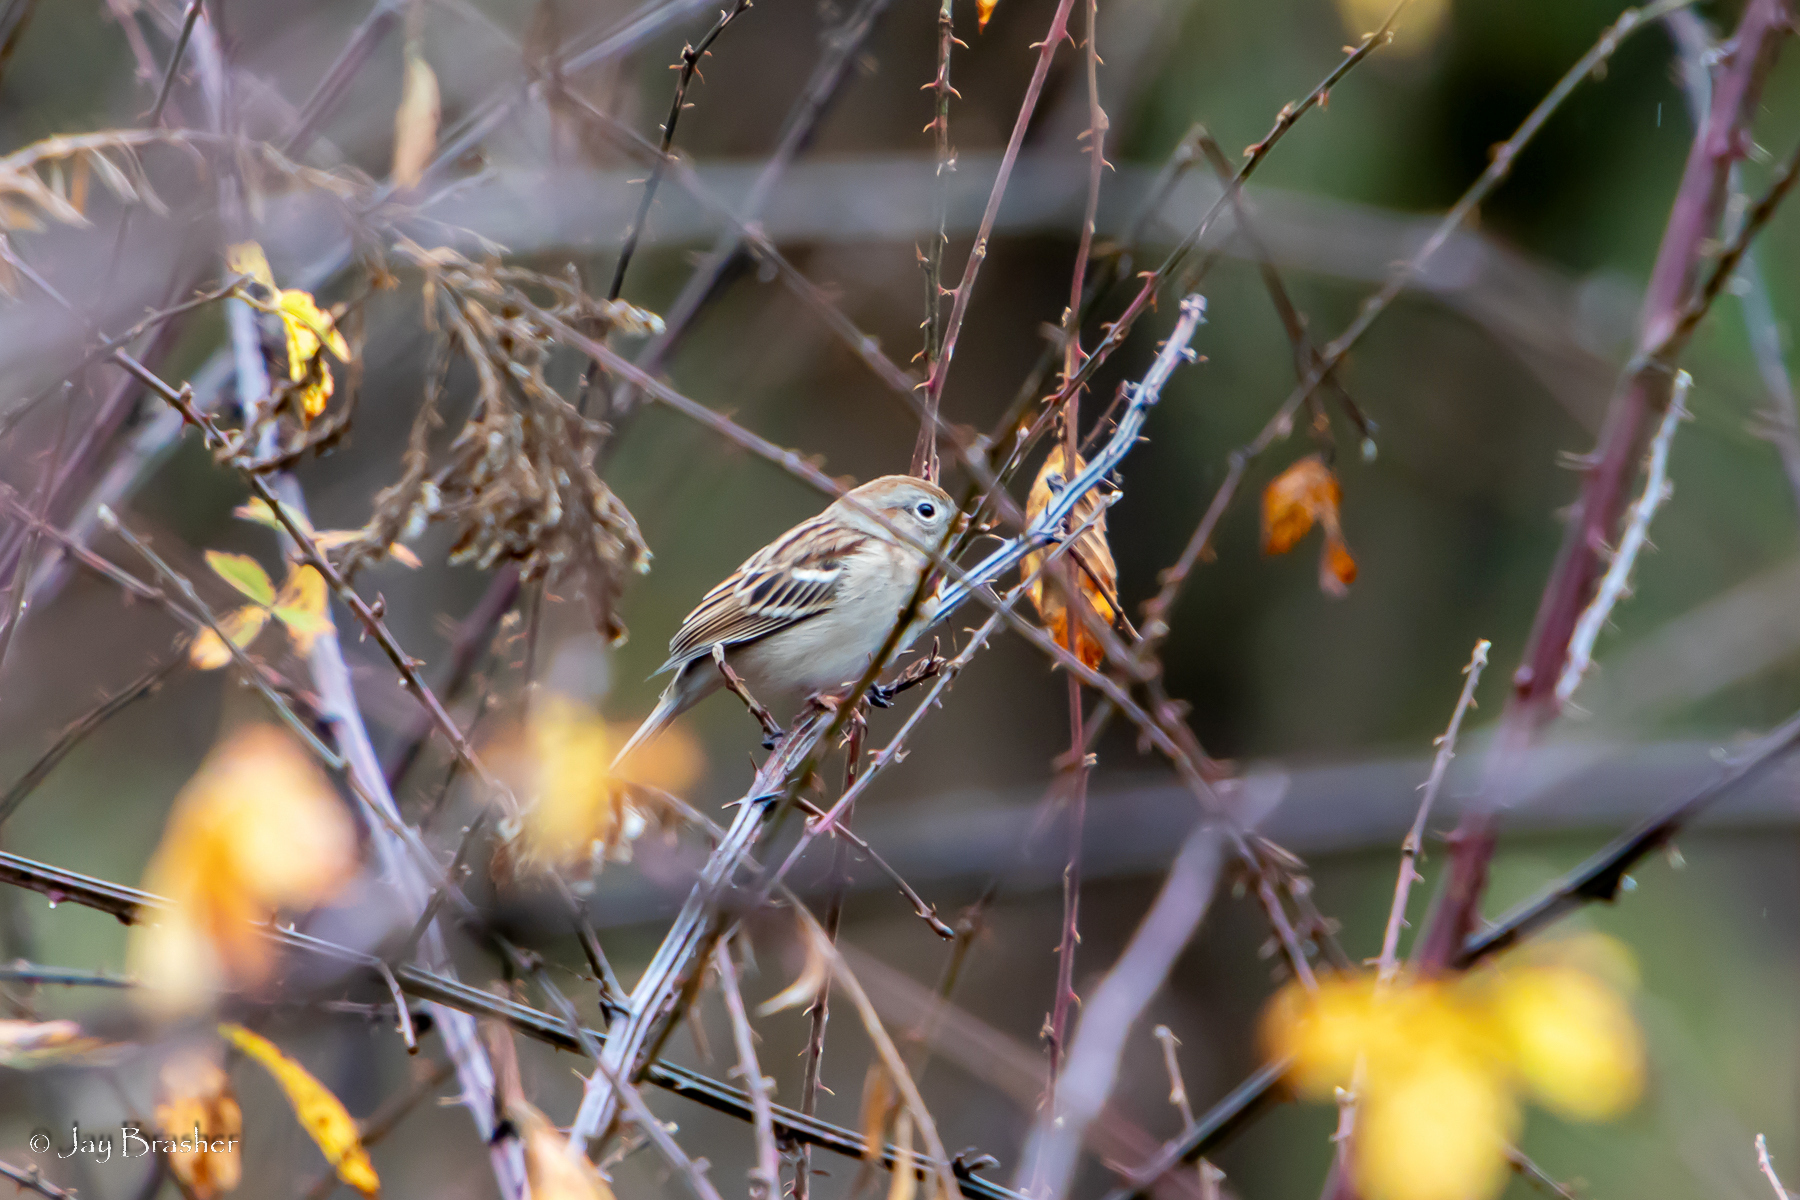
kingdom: Animalia
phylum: Chordata
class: Aves
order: Passeriformes
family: Passerellidae
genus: Spizella
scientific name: Spizella pusilla
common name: Field sparrow
